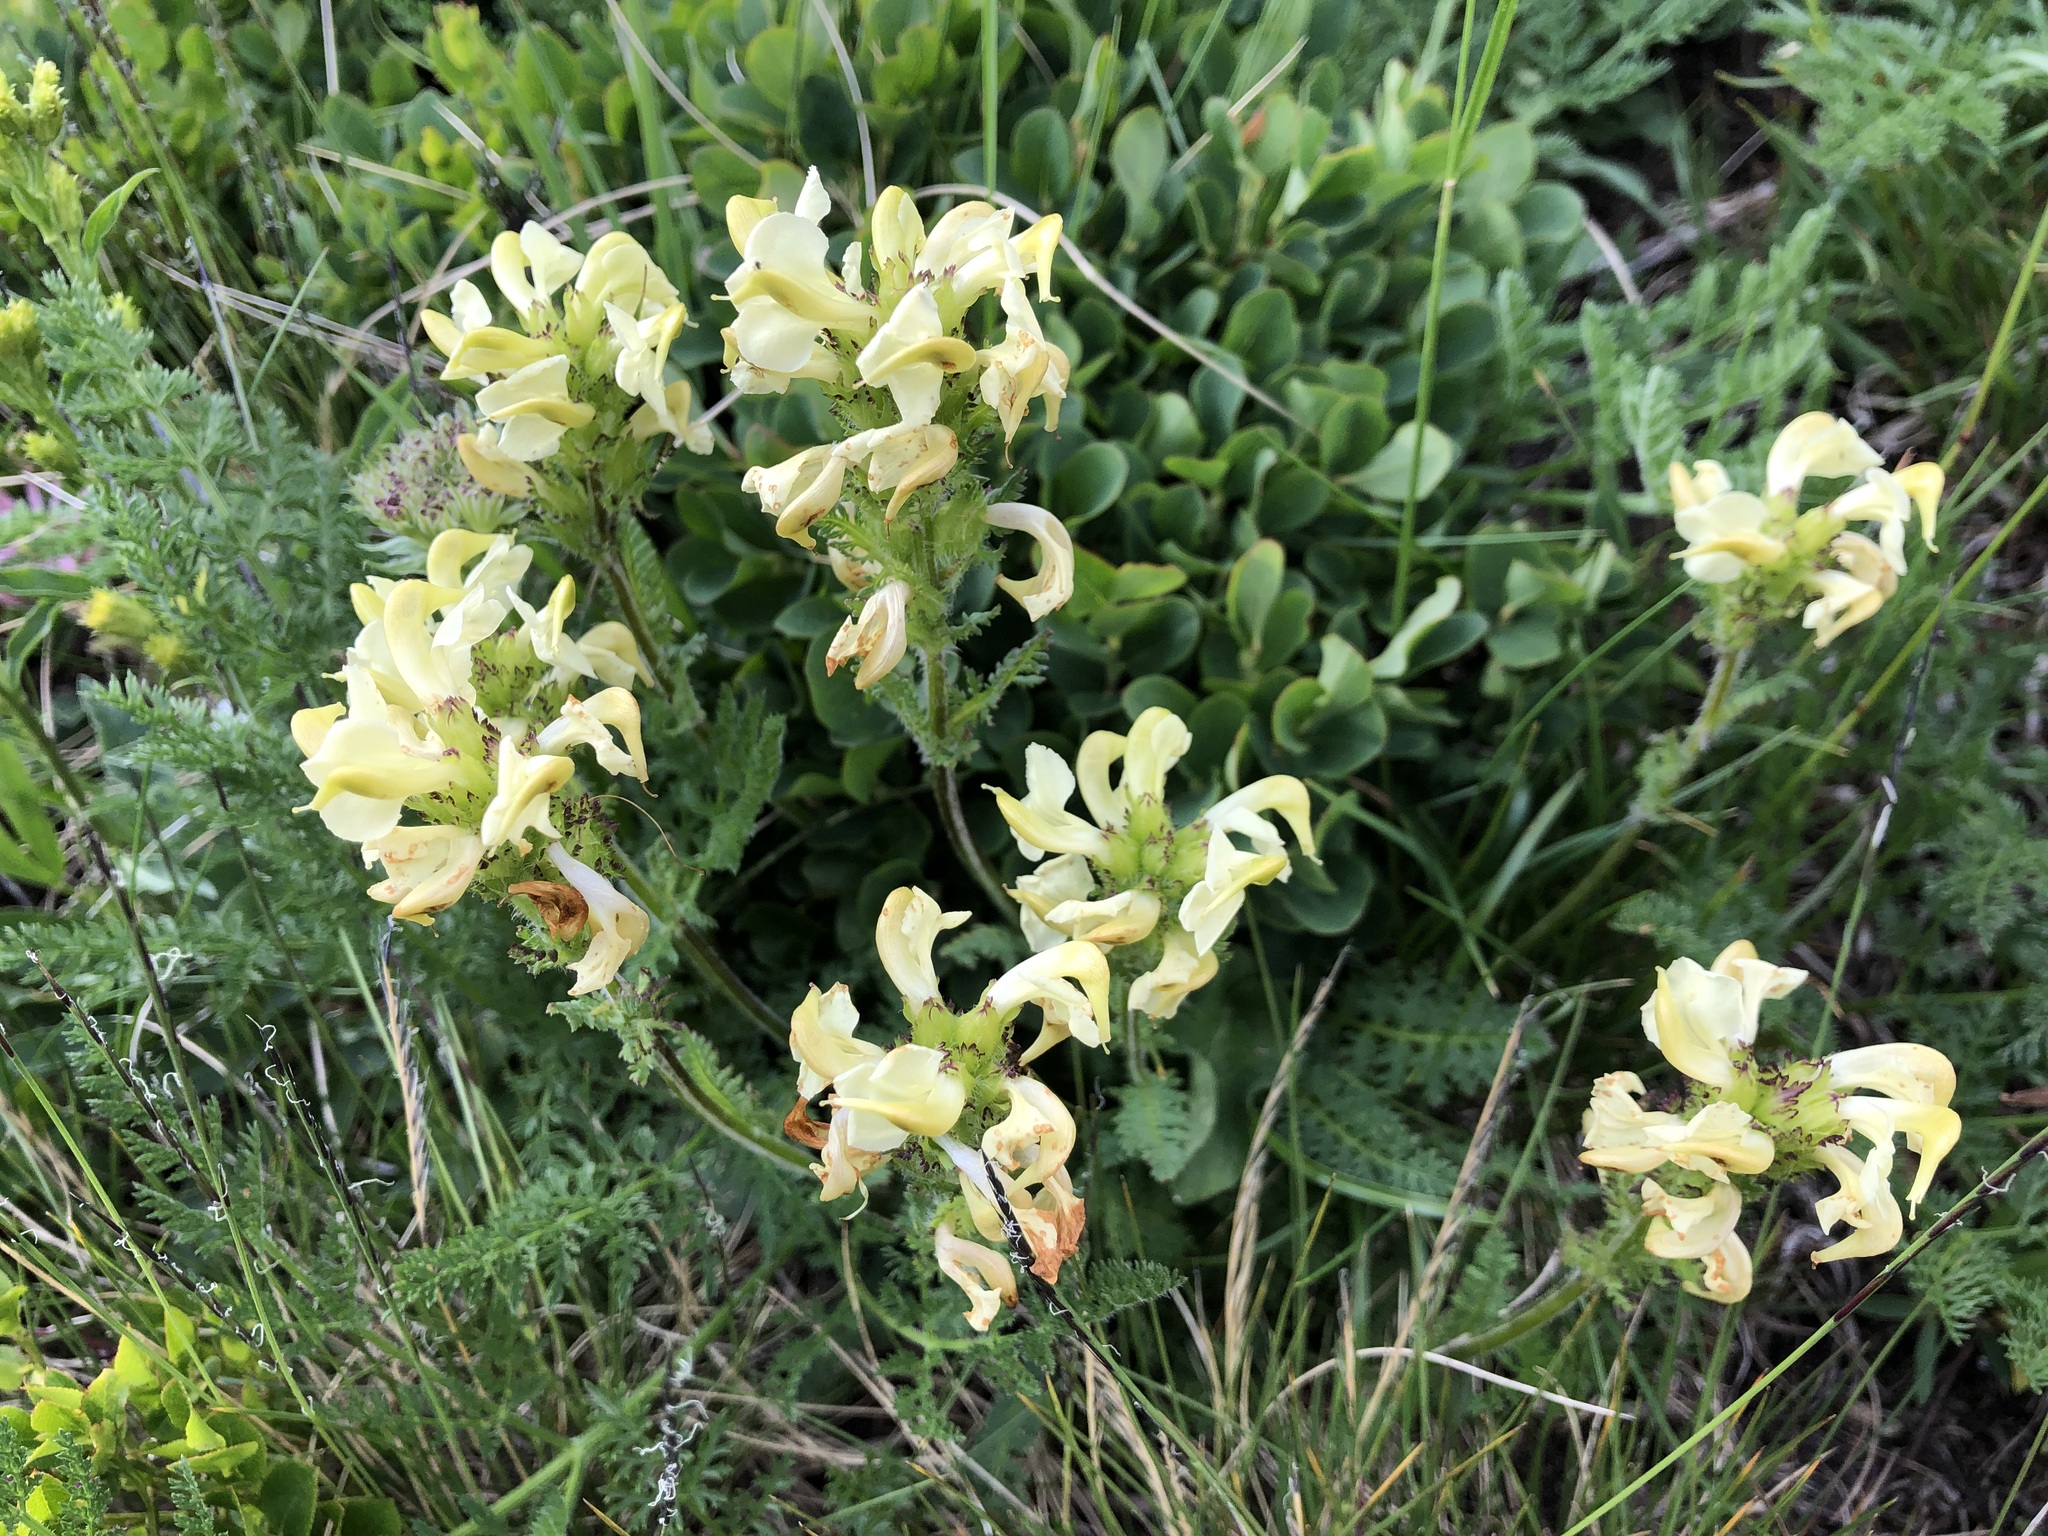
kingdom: Plantae
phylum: Tracheophyta
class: Magnoliopsida
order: Lamiales
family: Orobanchaceae
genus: Pedicularis
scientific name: Pedicularis tuberosa
